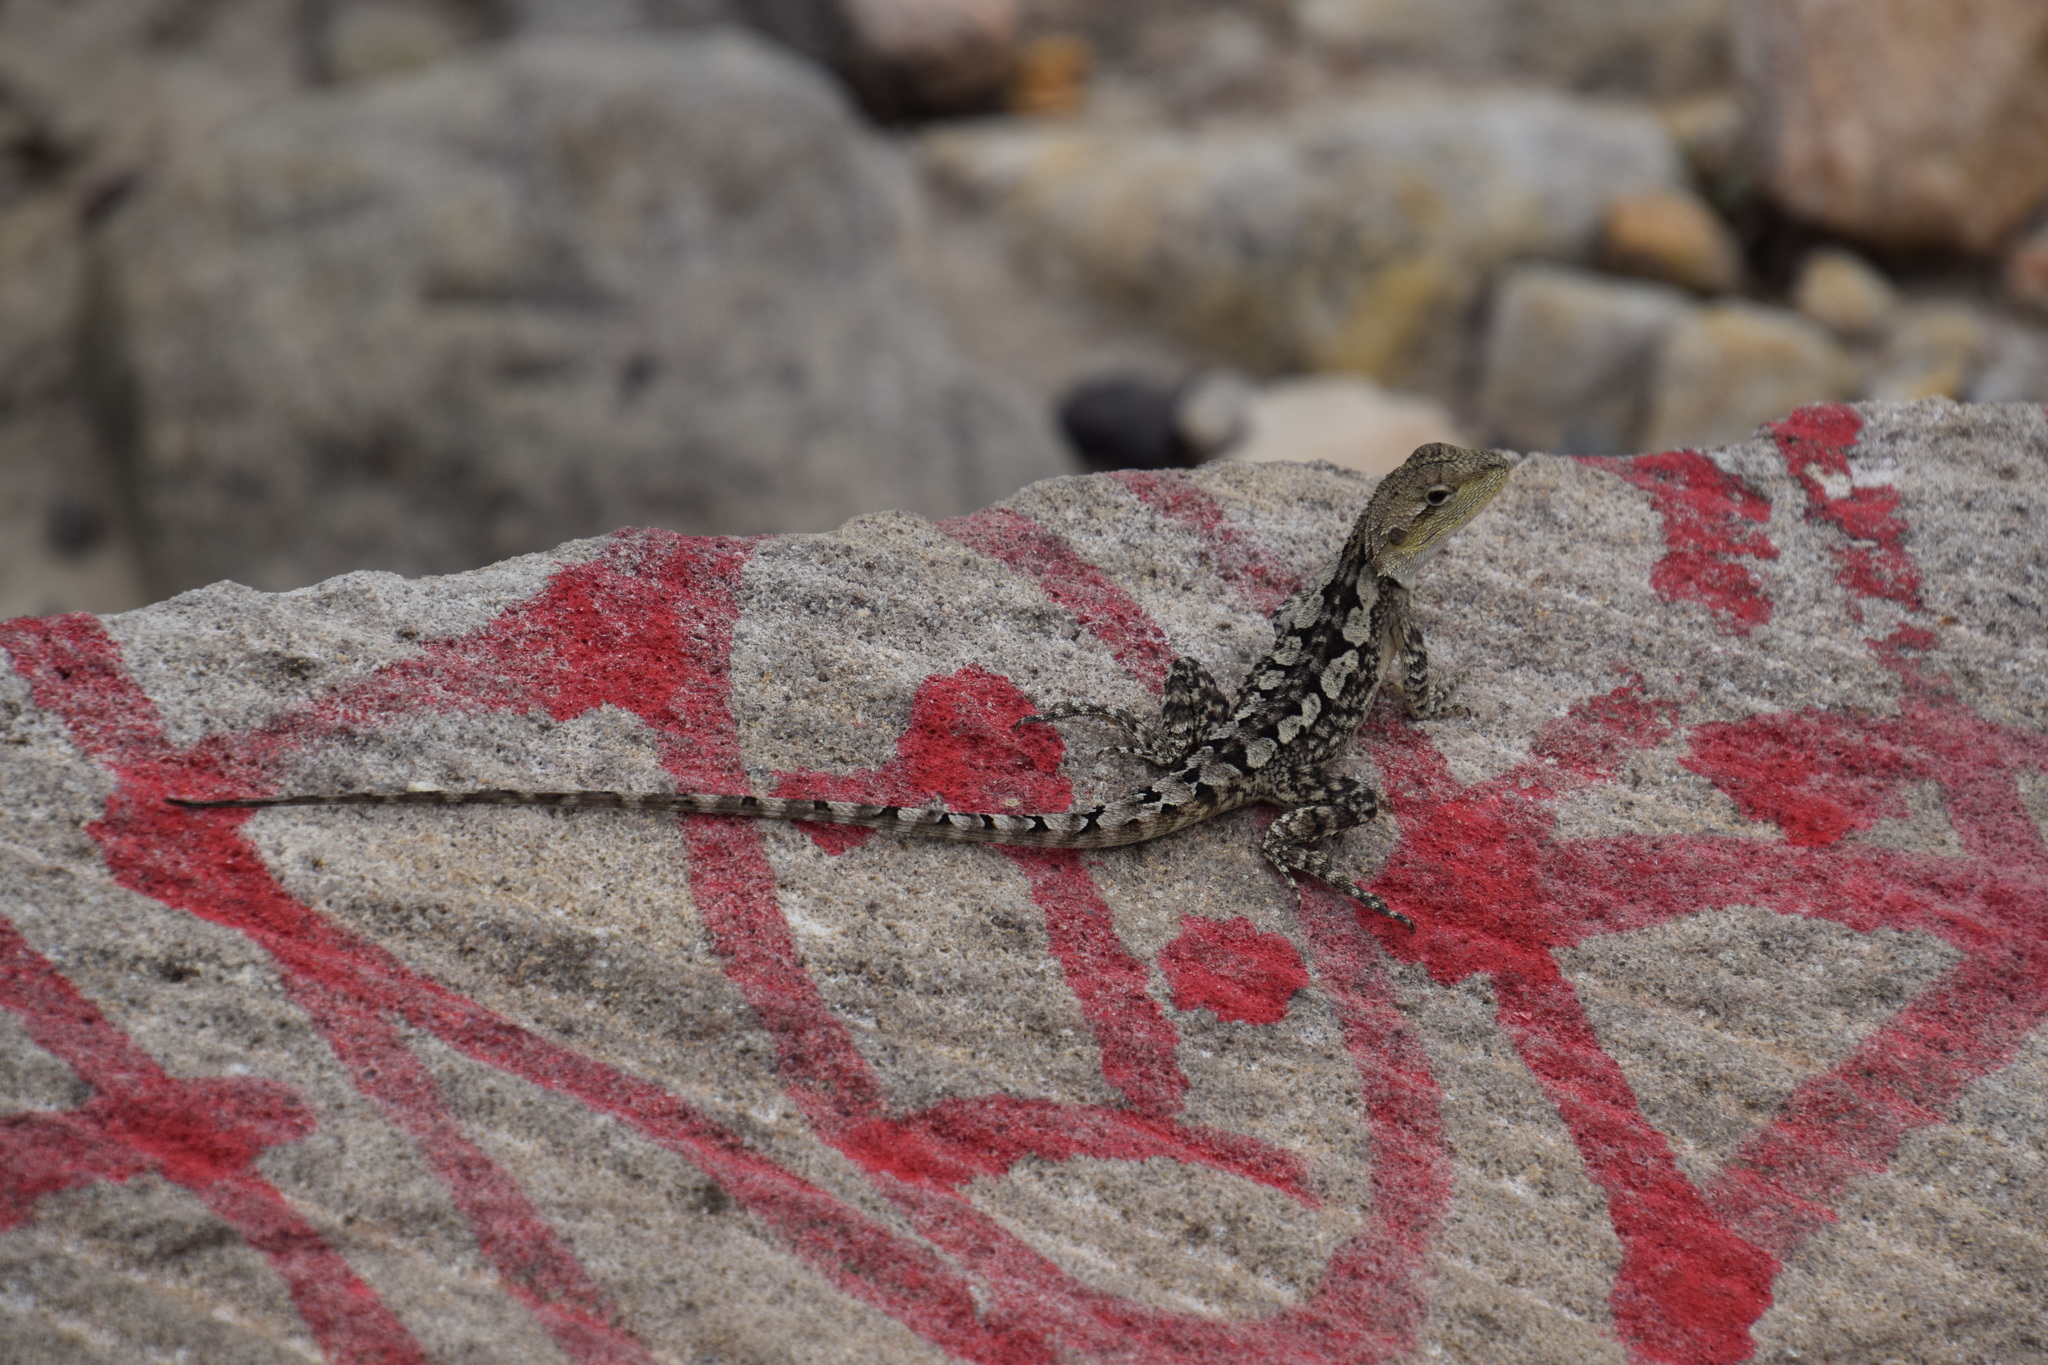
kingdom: Animalia
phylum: Chordata
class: Squamata
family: Agamidae
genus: Amphibolurus
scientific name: Amphibolurus muricatus
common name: Jacky lizard
